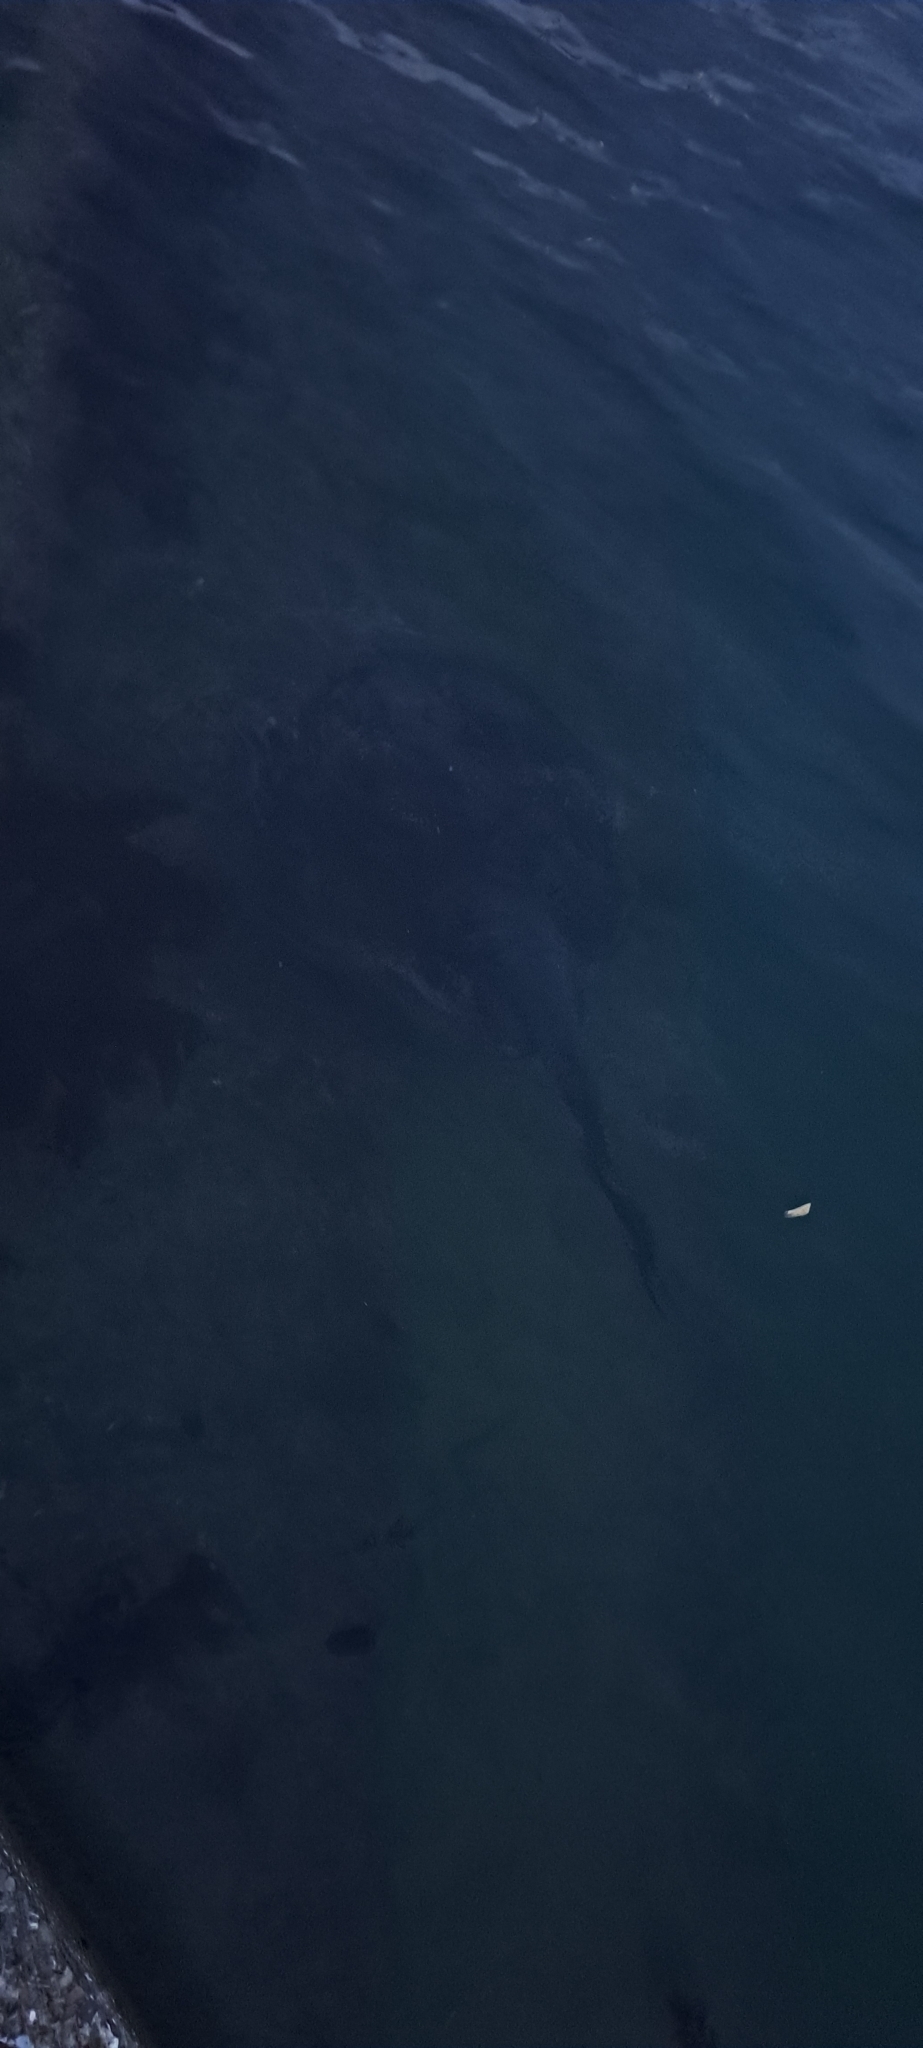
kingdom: Animalia
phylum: Chordata
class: Elasmobranchii
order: Myliobatiformes
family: Dasyatidae
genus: Bathytoshia
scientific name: Bathytoshia brevicaudata
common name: Short-tail stingray
